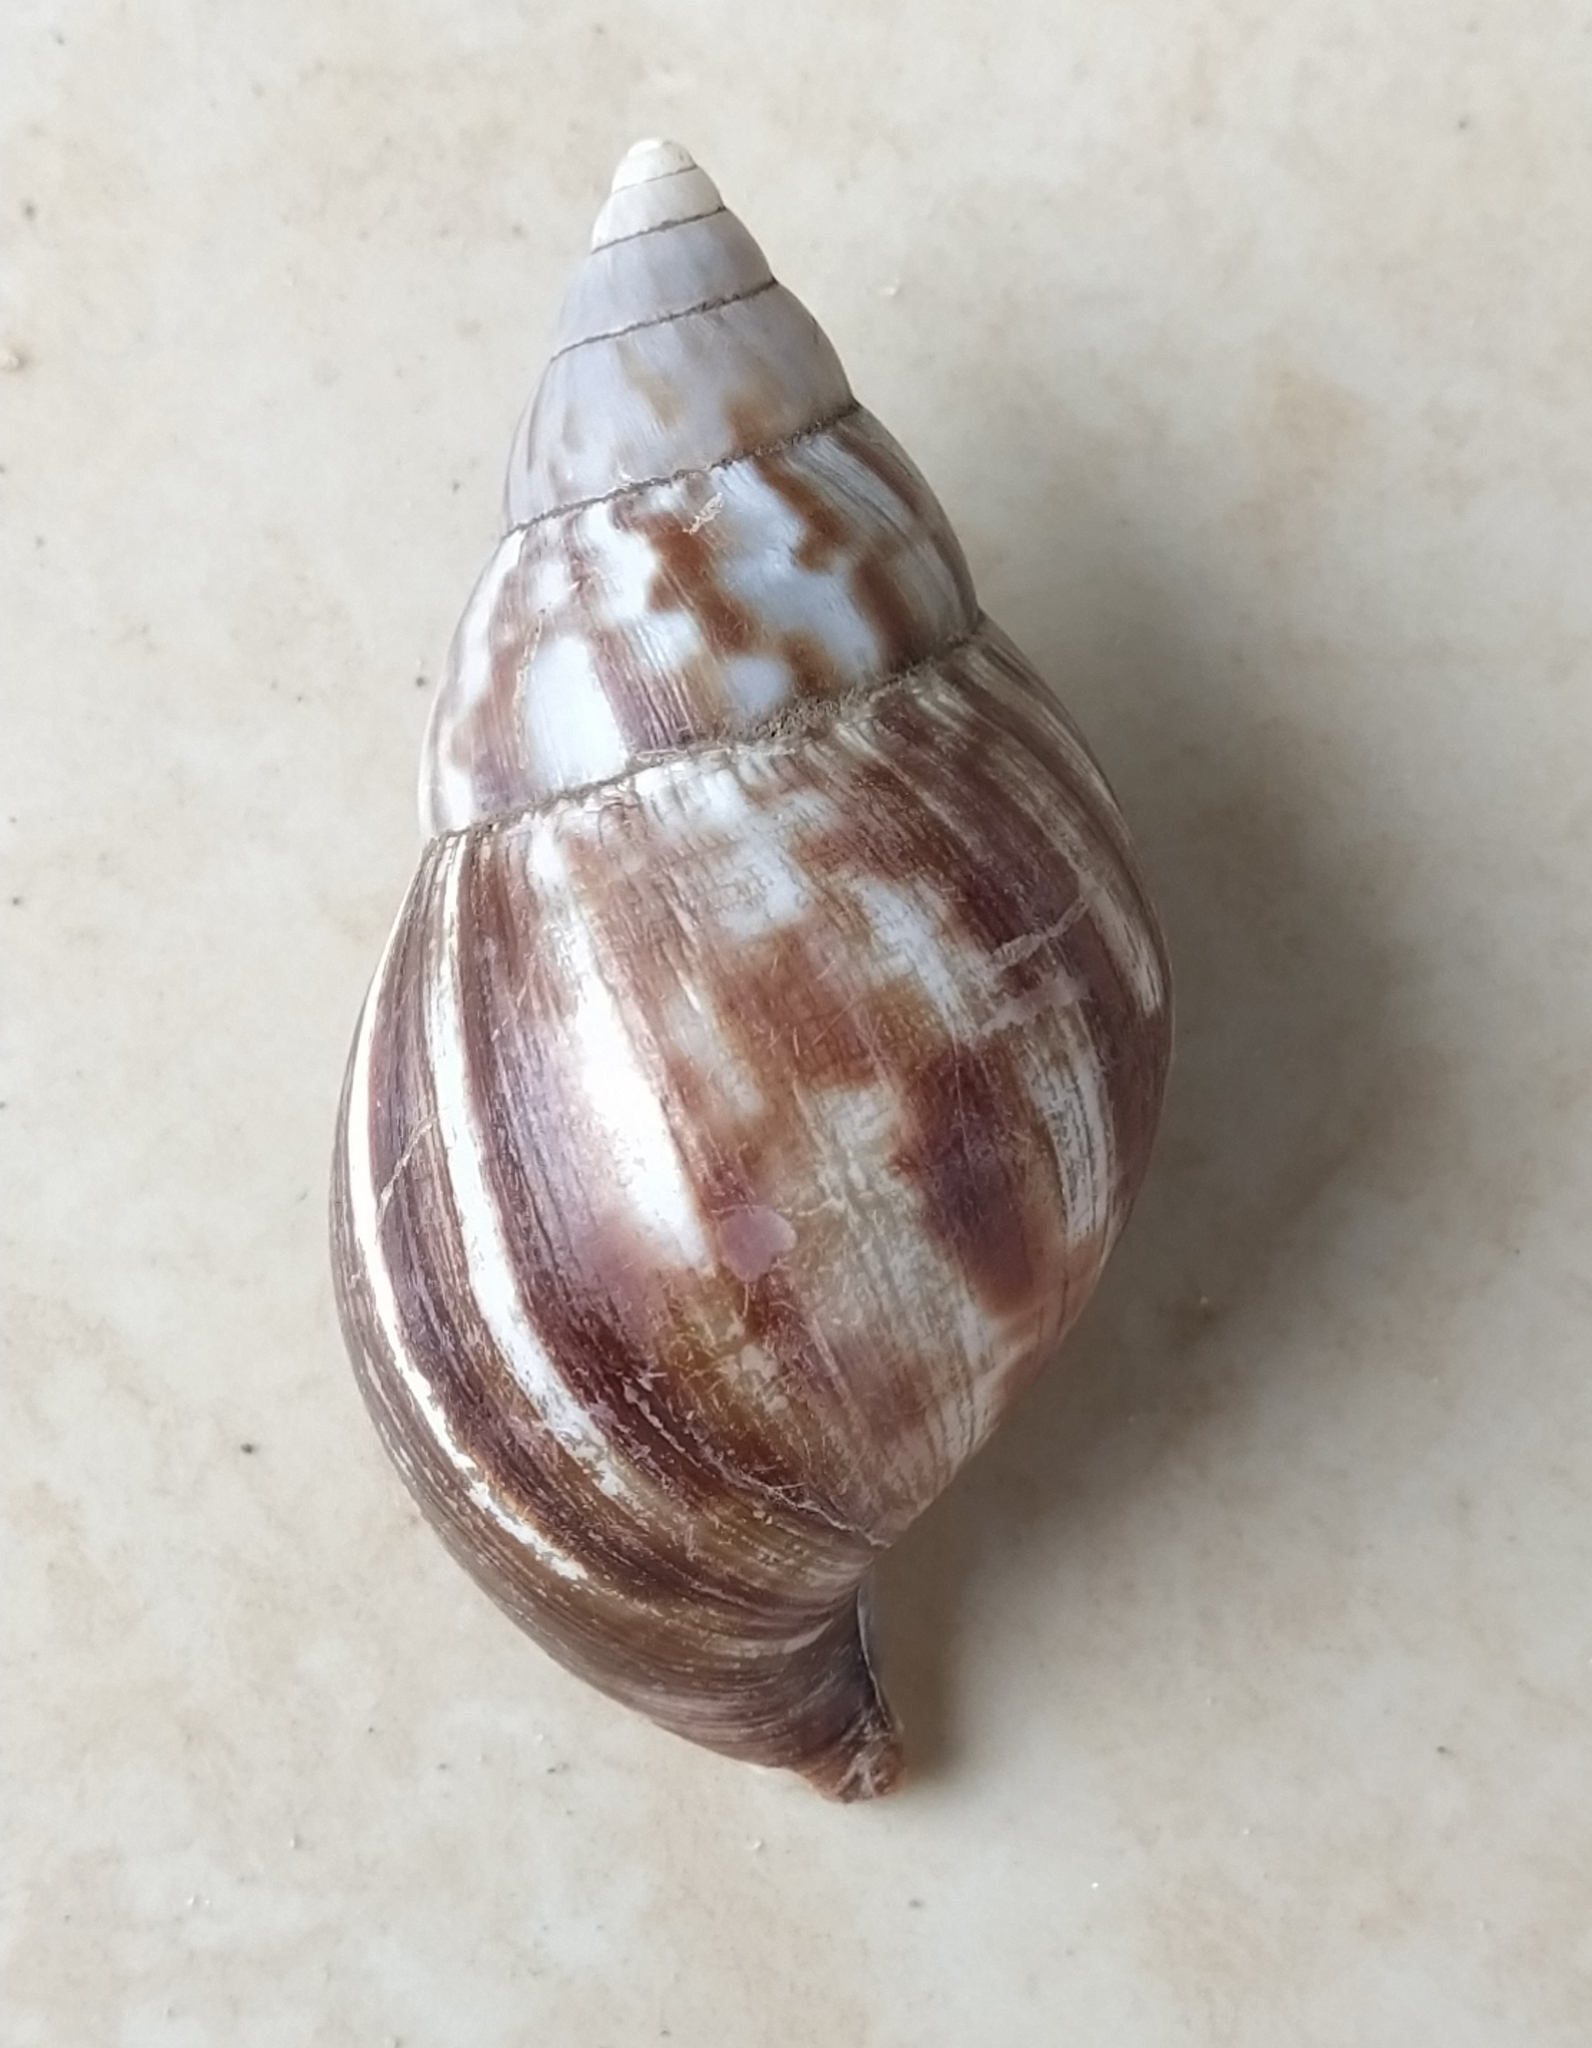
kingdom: Animalia
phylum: Mollusca
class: Gastropoda
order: Stylommatophora
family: Achatinidae
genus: Lissachatina
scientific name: Lissachatina fulica
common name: Giant african snail
